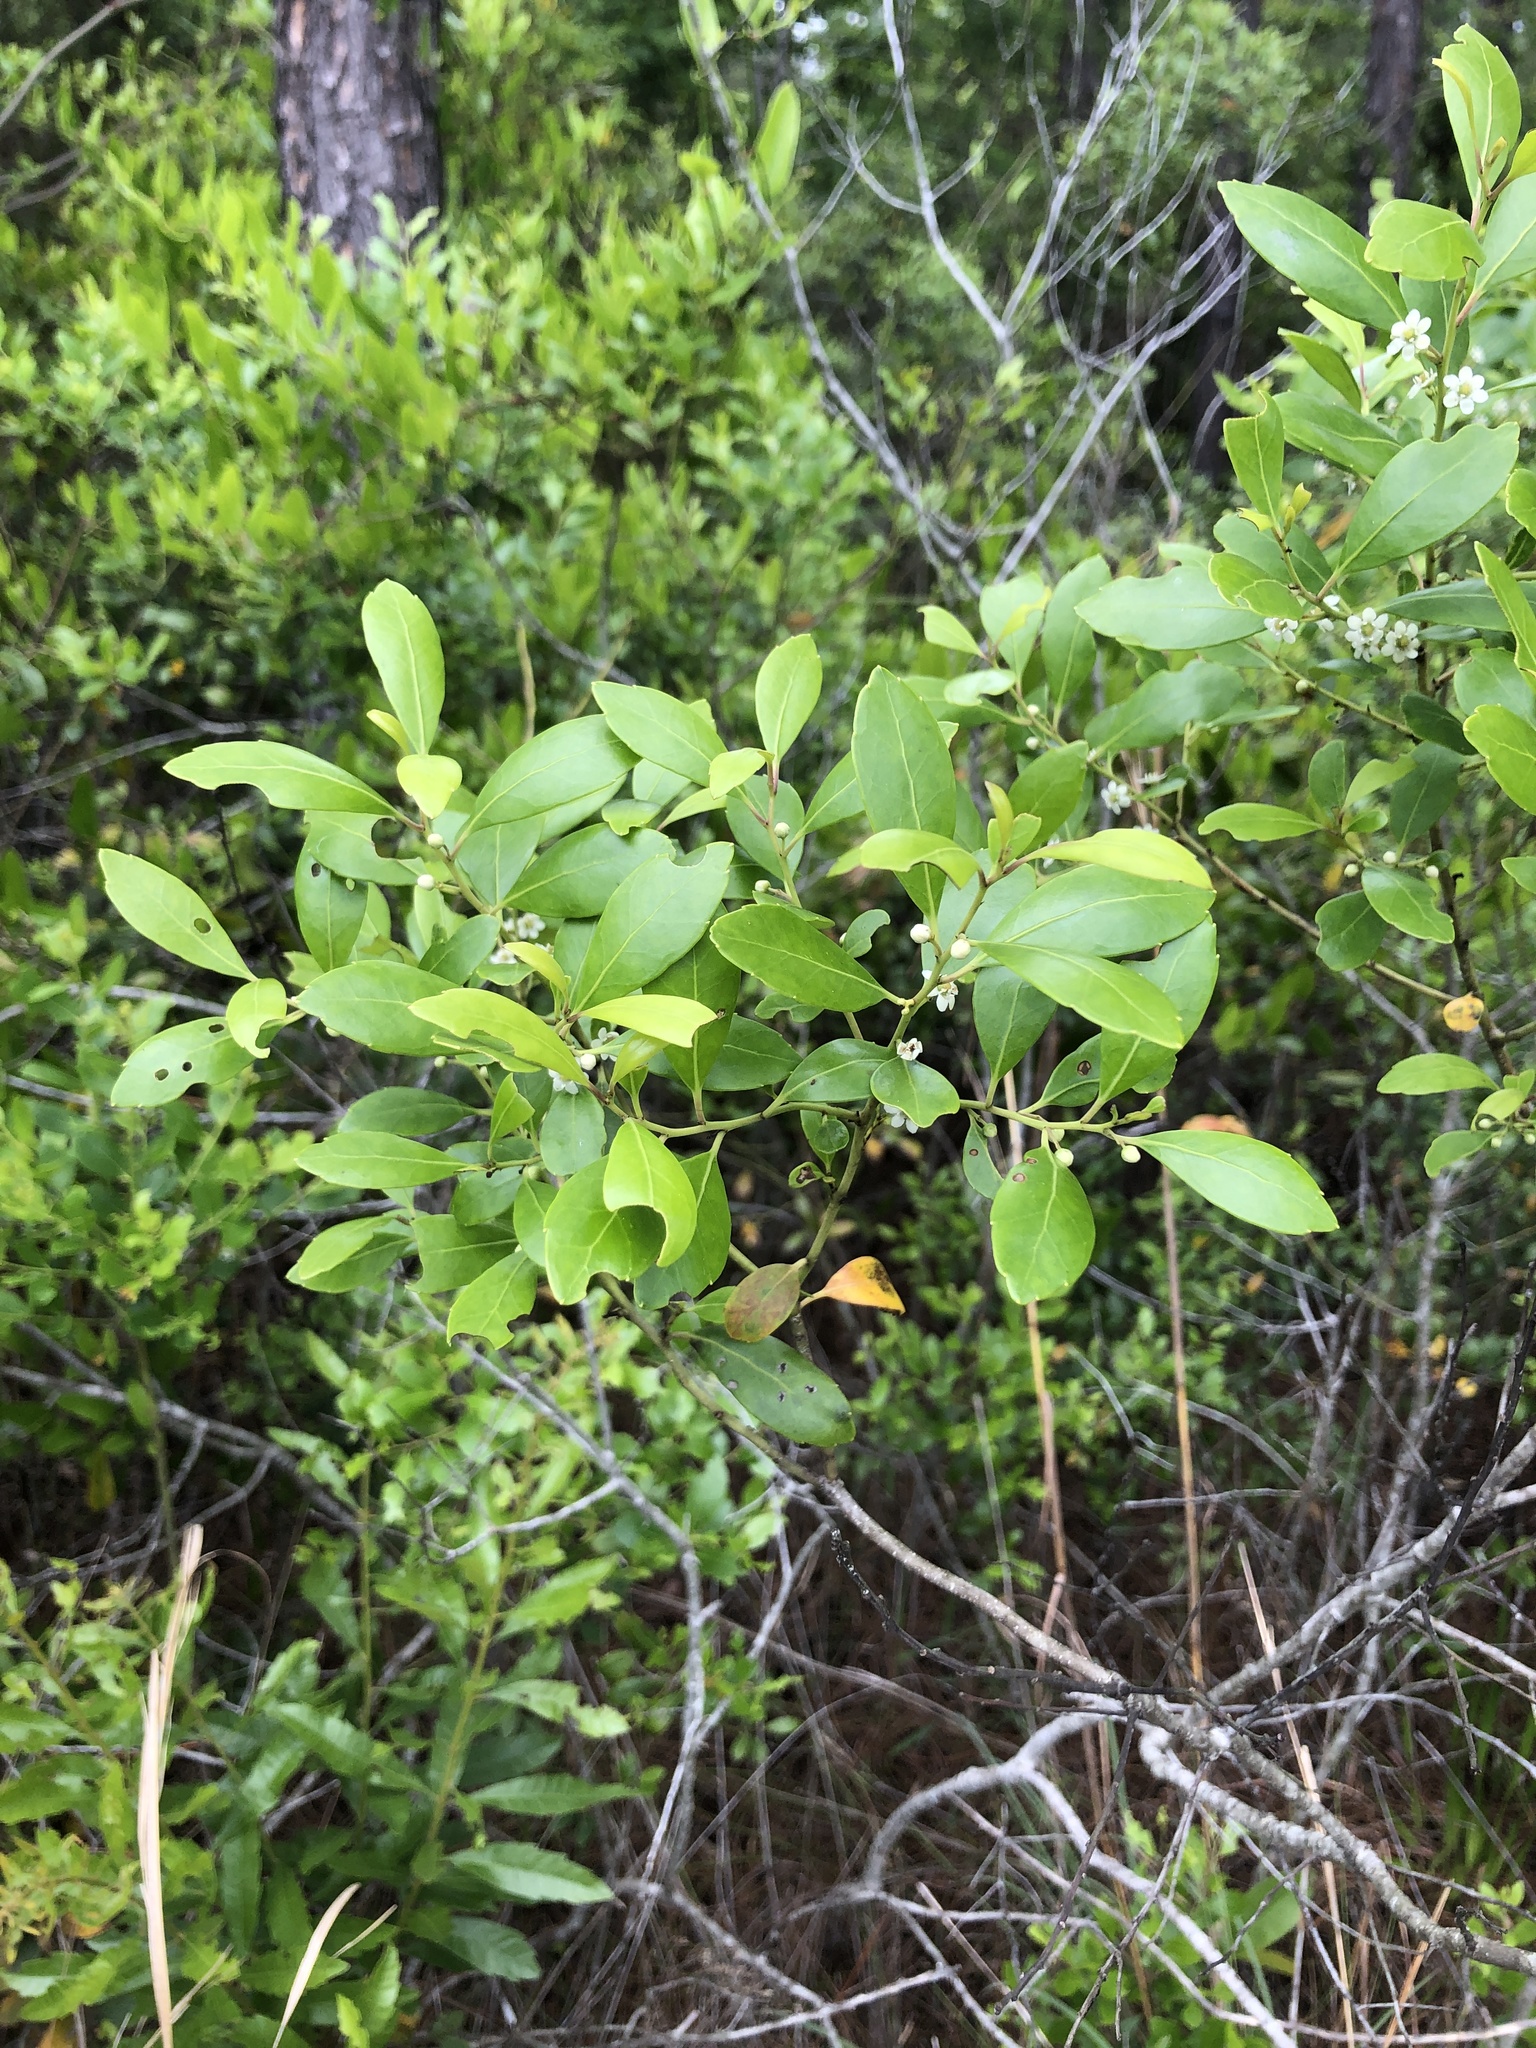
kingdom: Plantae
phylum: Tracheophyta
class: Magnoliopsida
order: Aquifoliales
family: Aquifoliaceae
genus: Ilex
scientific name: Ilex glabra
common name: Bitter gallberry
